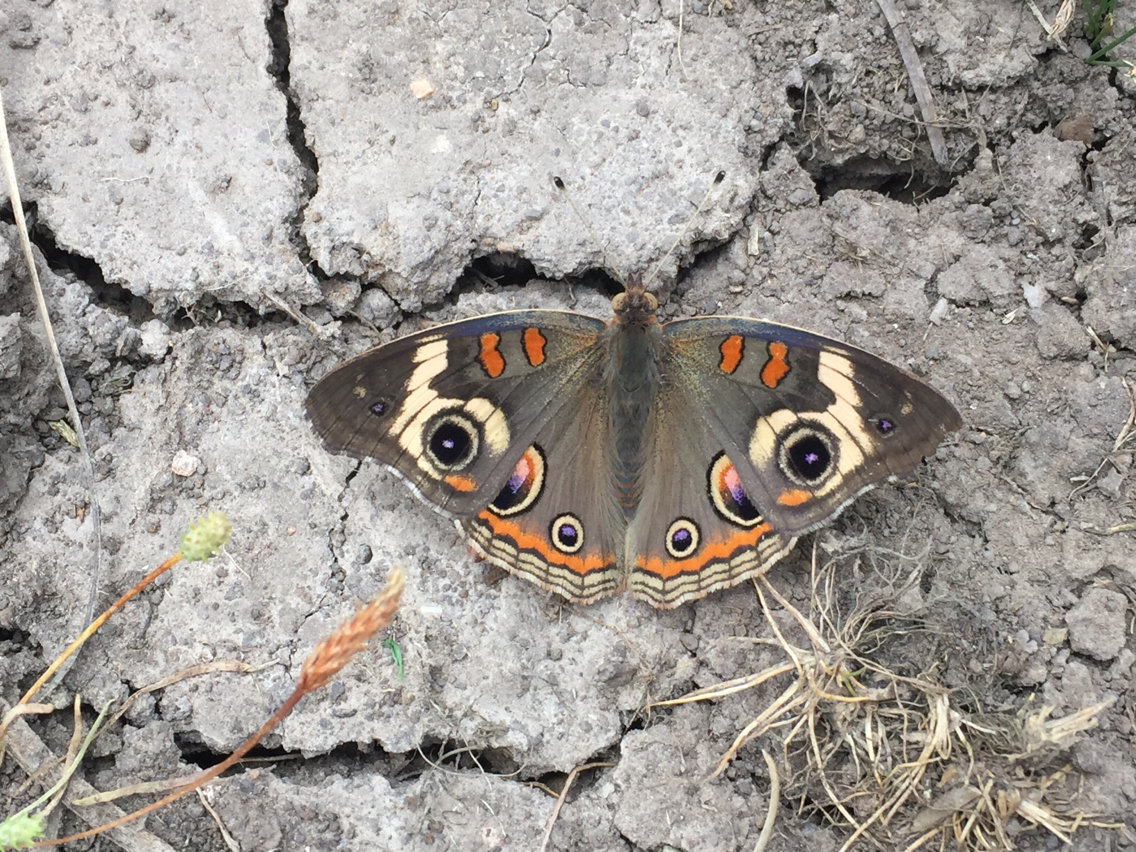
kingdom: Animalia
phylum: Arthropoda
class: Insecta
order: Lepidoptera
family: Nymphalidae
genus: Junonia
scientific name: Junonia grisea
